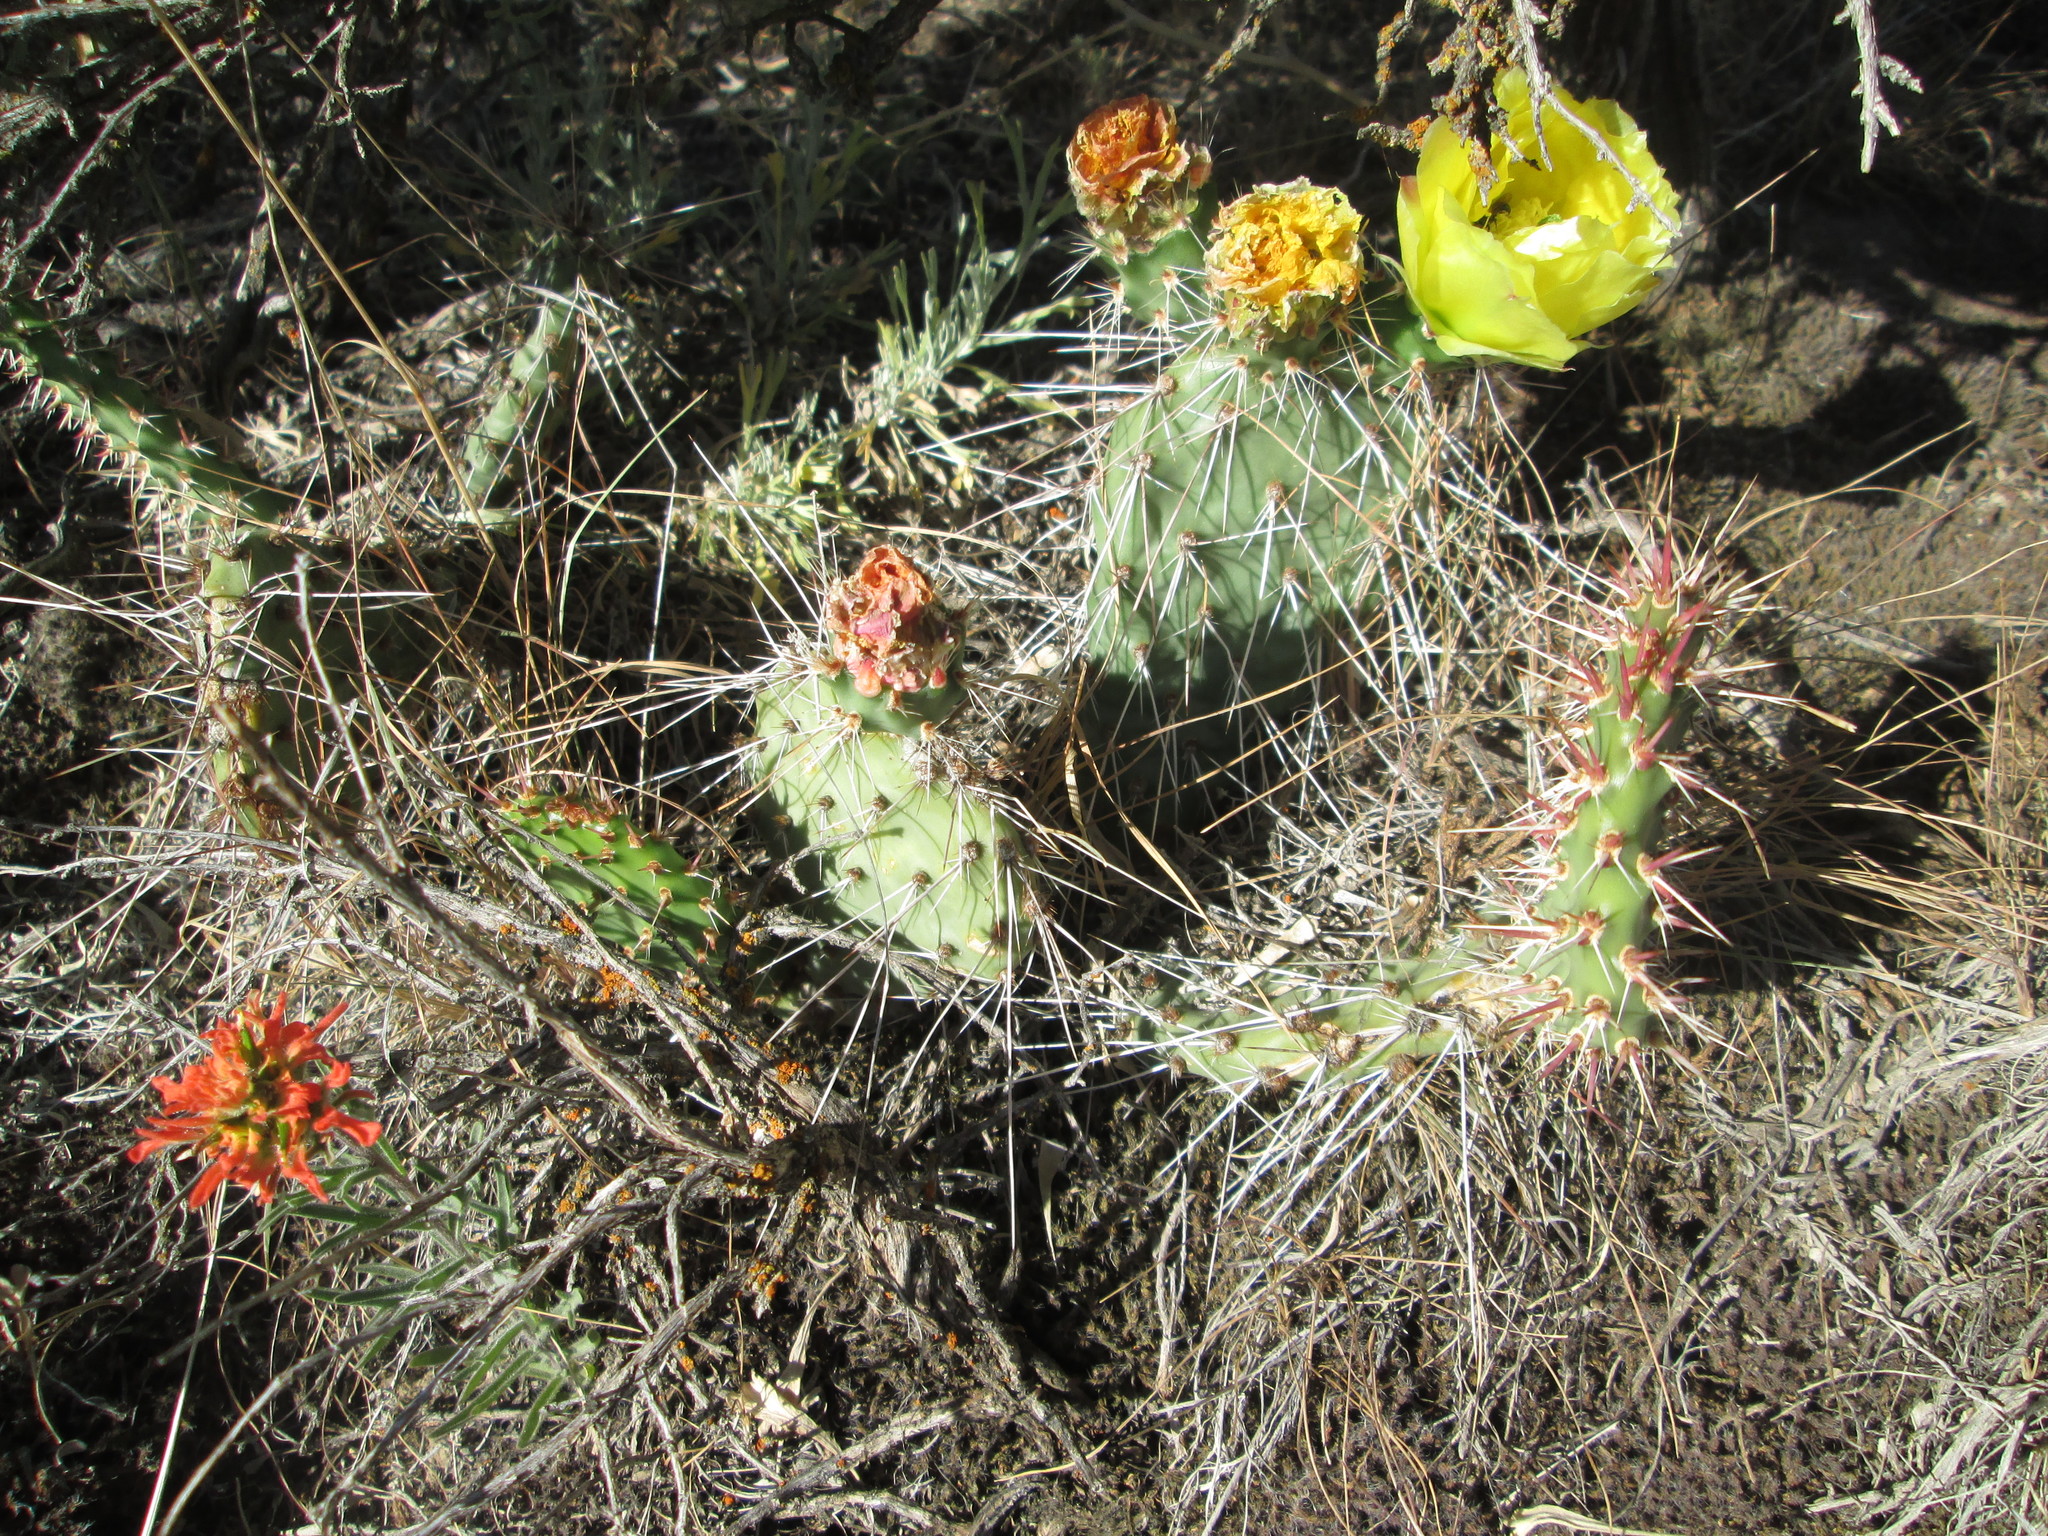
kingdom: Plantae
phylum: Tracheophyta
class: Magnoliopsida
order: Caryophyllales
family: Cactaceae
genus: Opuntia
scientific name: Opuntia polyacantha
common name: Plains prickly-pear
